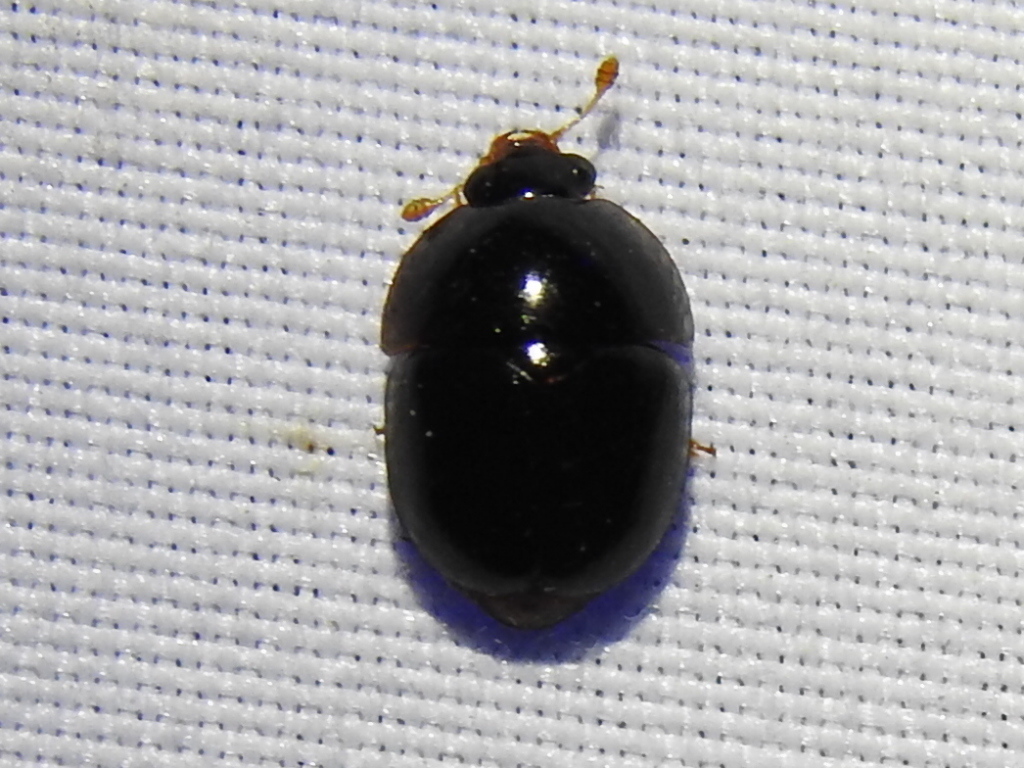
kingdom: Animalia
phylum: Arthropoda
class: Insecta
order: Coleoptera
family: Nitidulidae
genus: Camptodes
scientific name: Camptodes texanus
